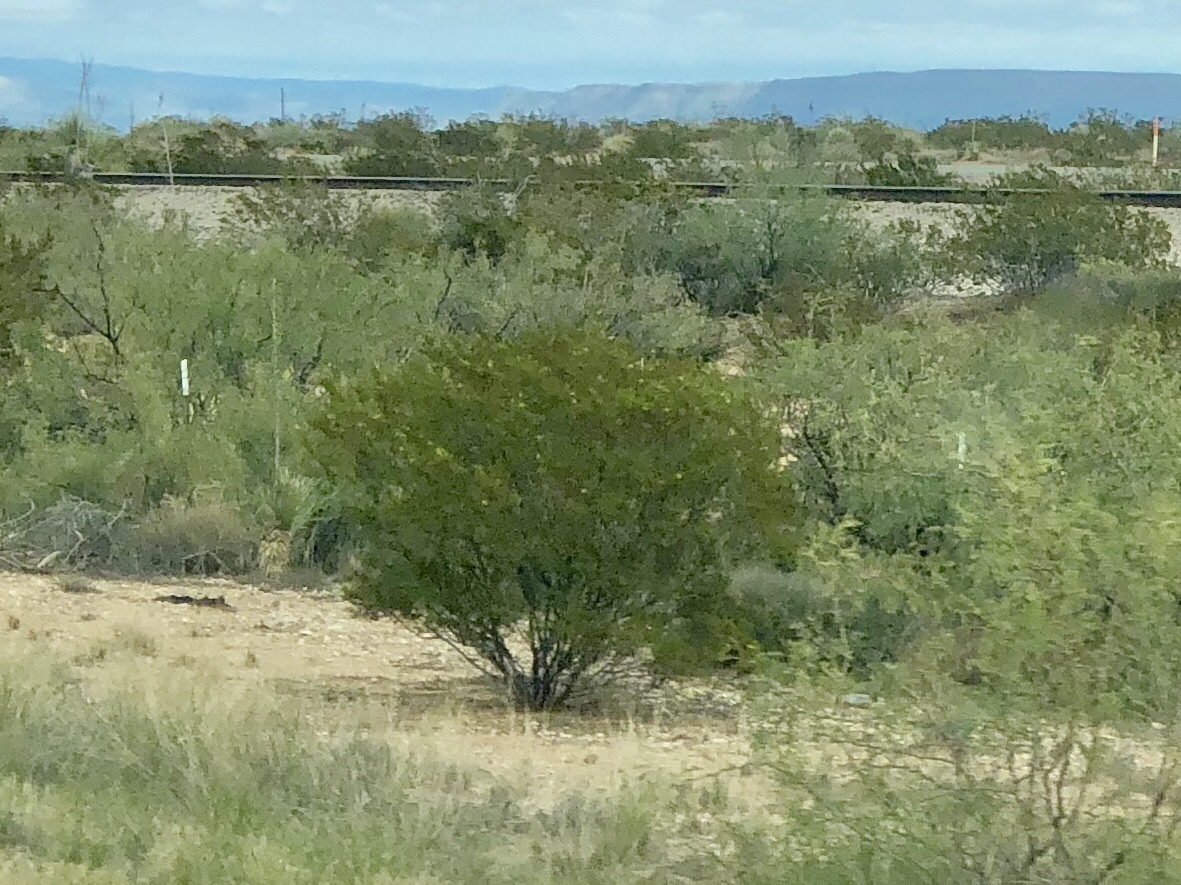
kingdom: Plantae
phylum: Tracheophyta
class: Magnoliopsida
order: Zygophyllales
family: Zygophyllaceae
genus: Larrea
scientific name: Larrea tridentata
